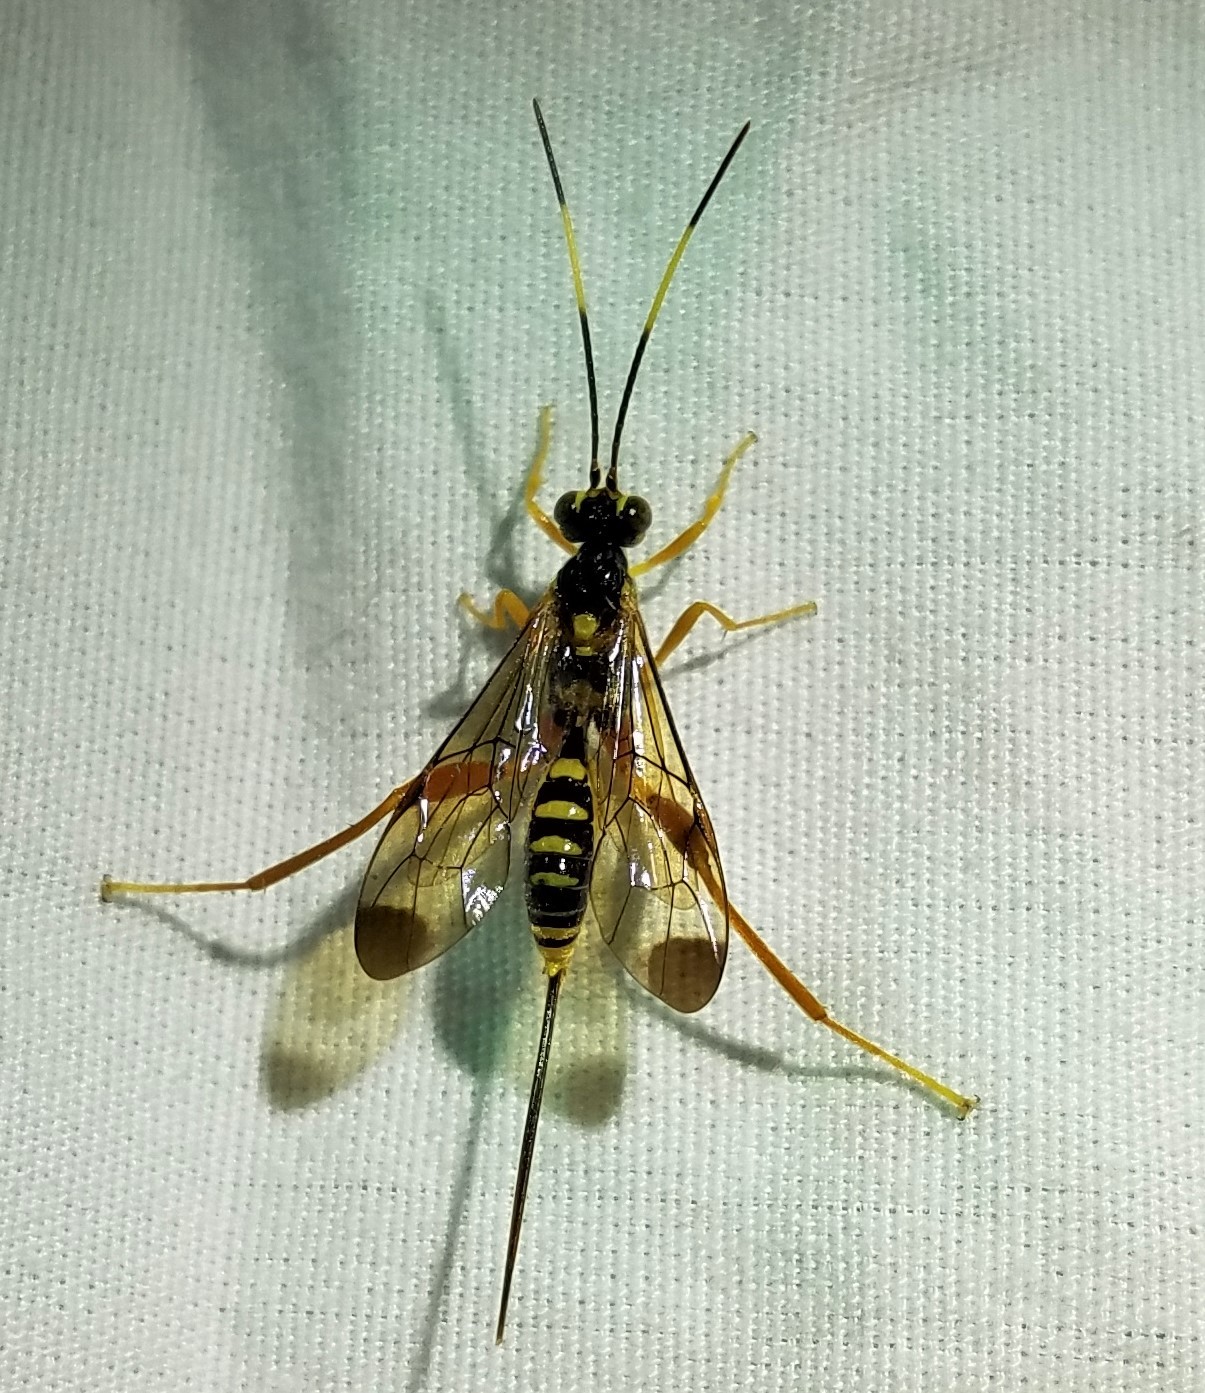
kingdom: Animalia
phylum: Arthropoda
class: Insecta
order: Hymenoptera
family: Ichneumonidae
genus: Spilopteron
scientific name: Spilopteron occiputale
